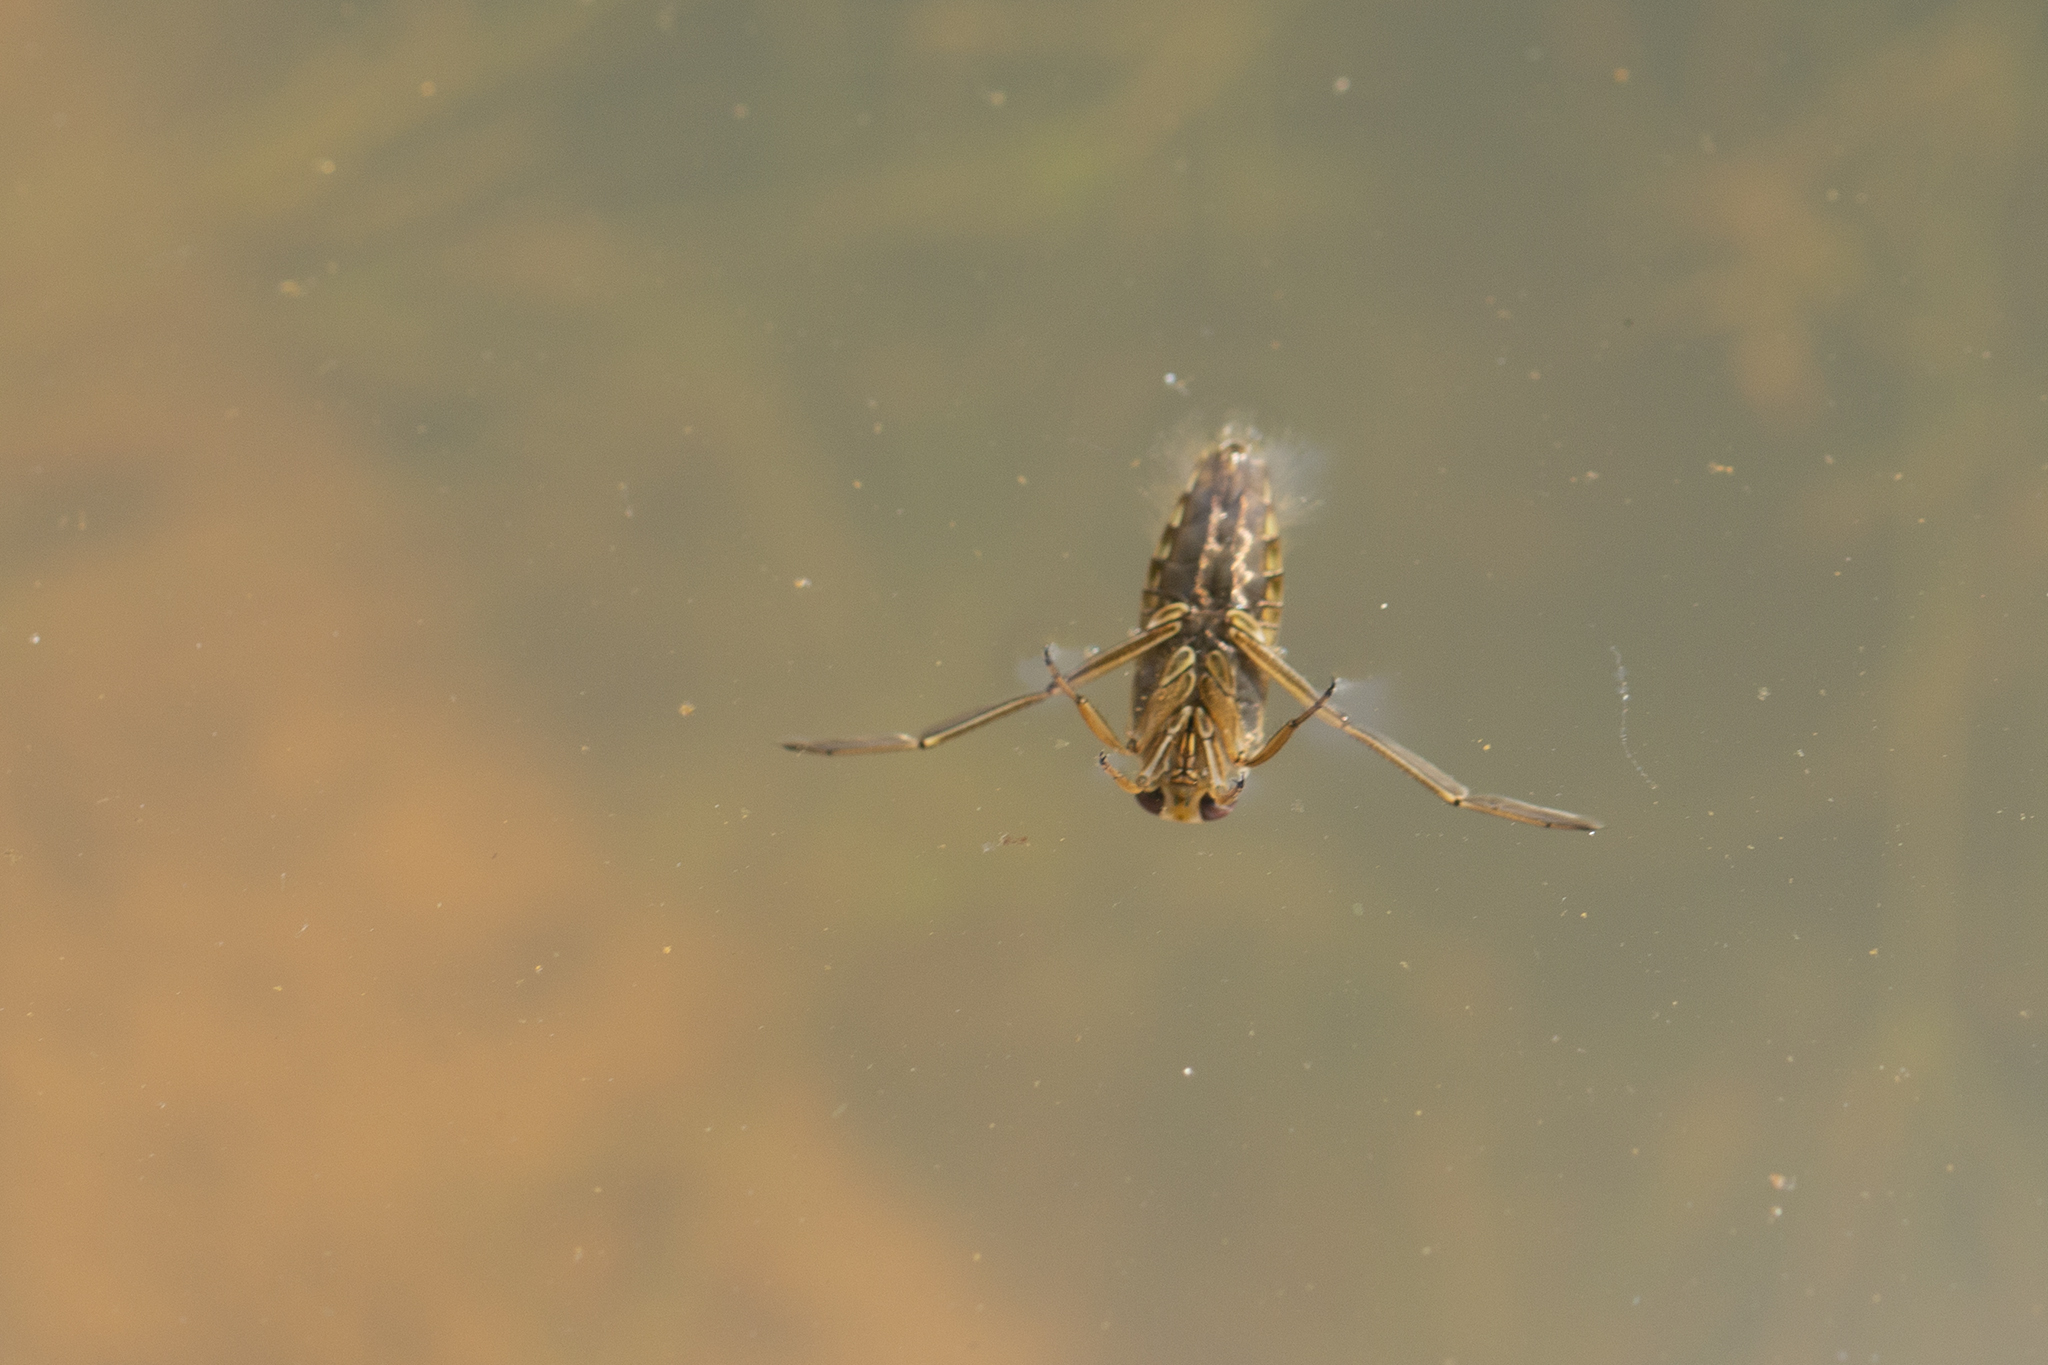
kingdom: Animalia
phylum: Arthropoda
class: Insecta
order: Hemiptera
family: Notonectidae
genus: Notonecta
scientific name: Notonecta
